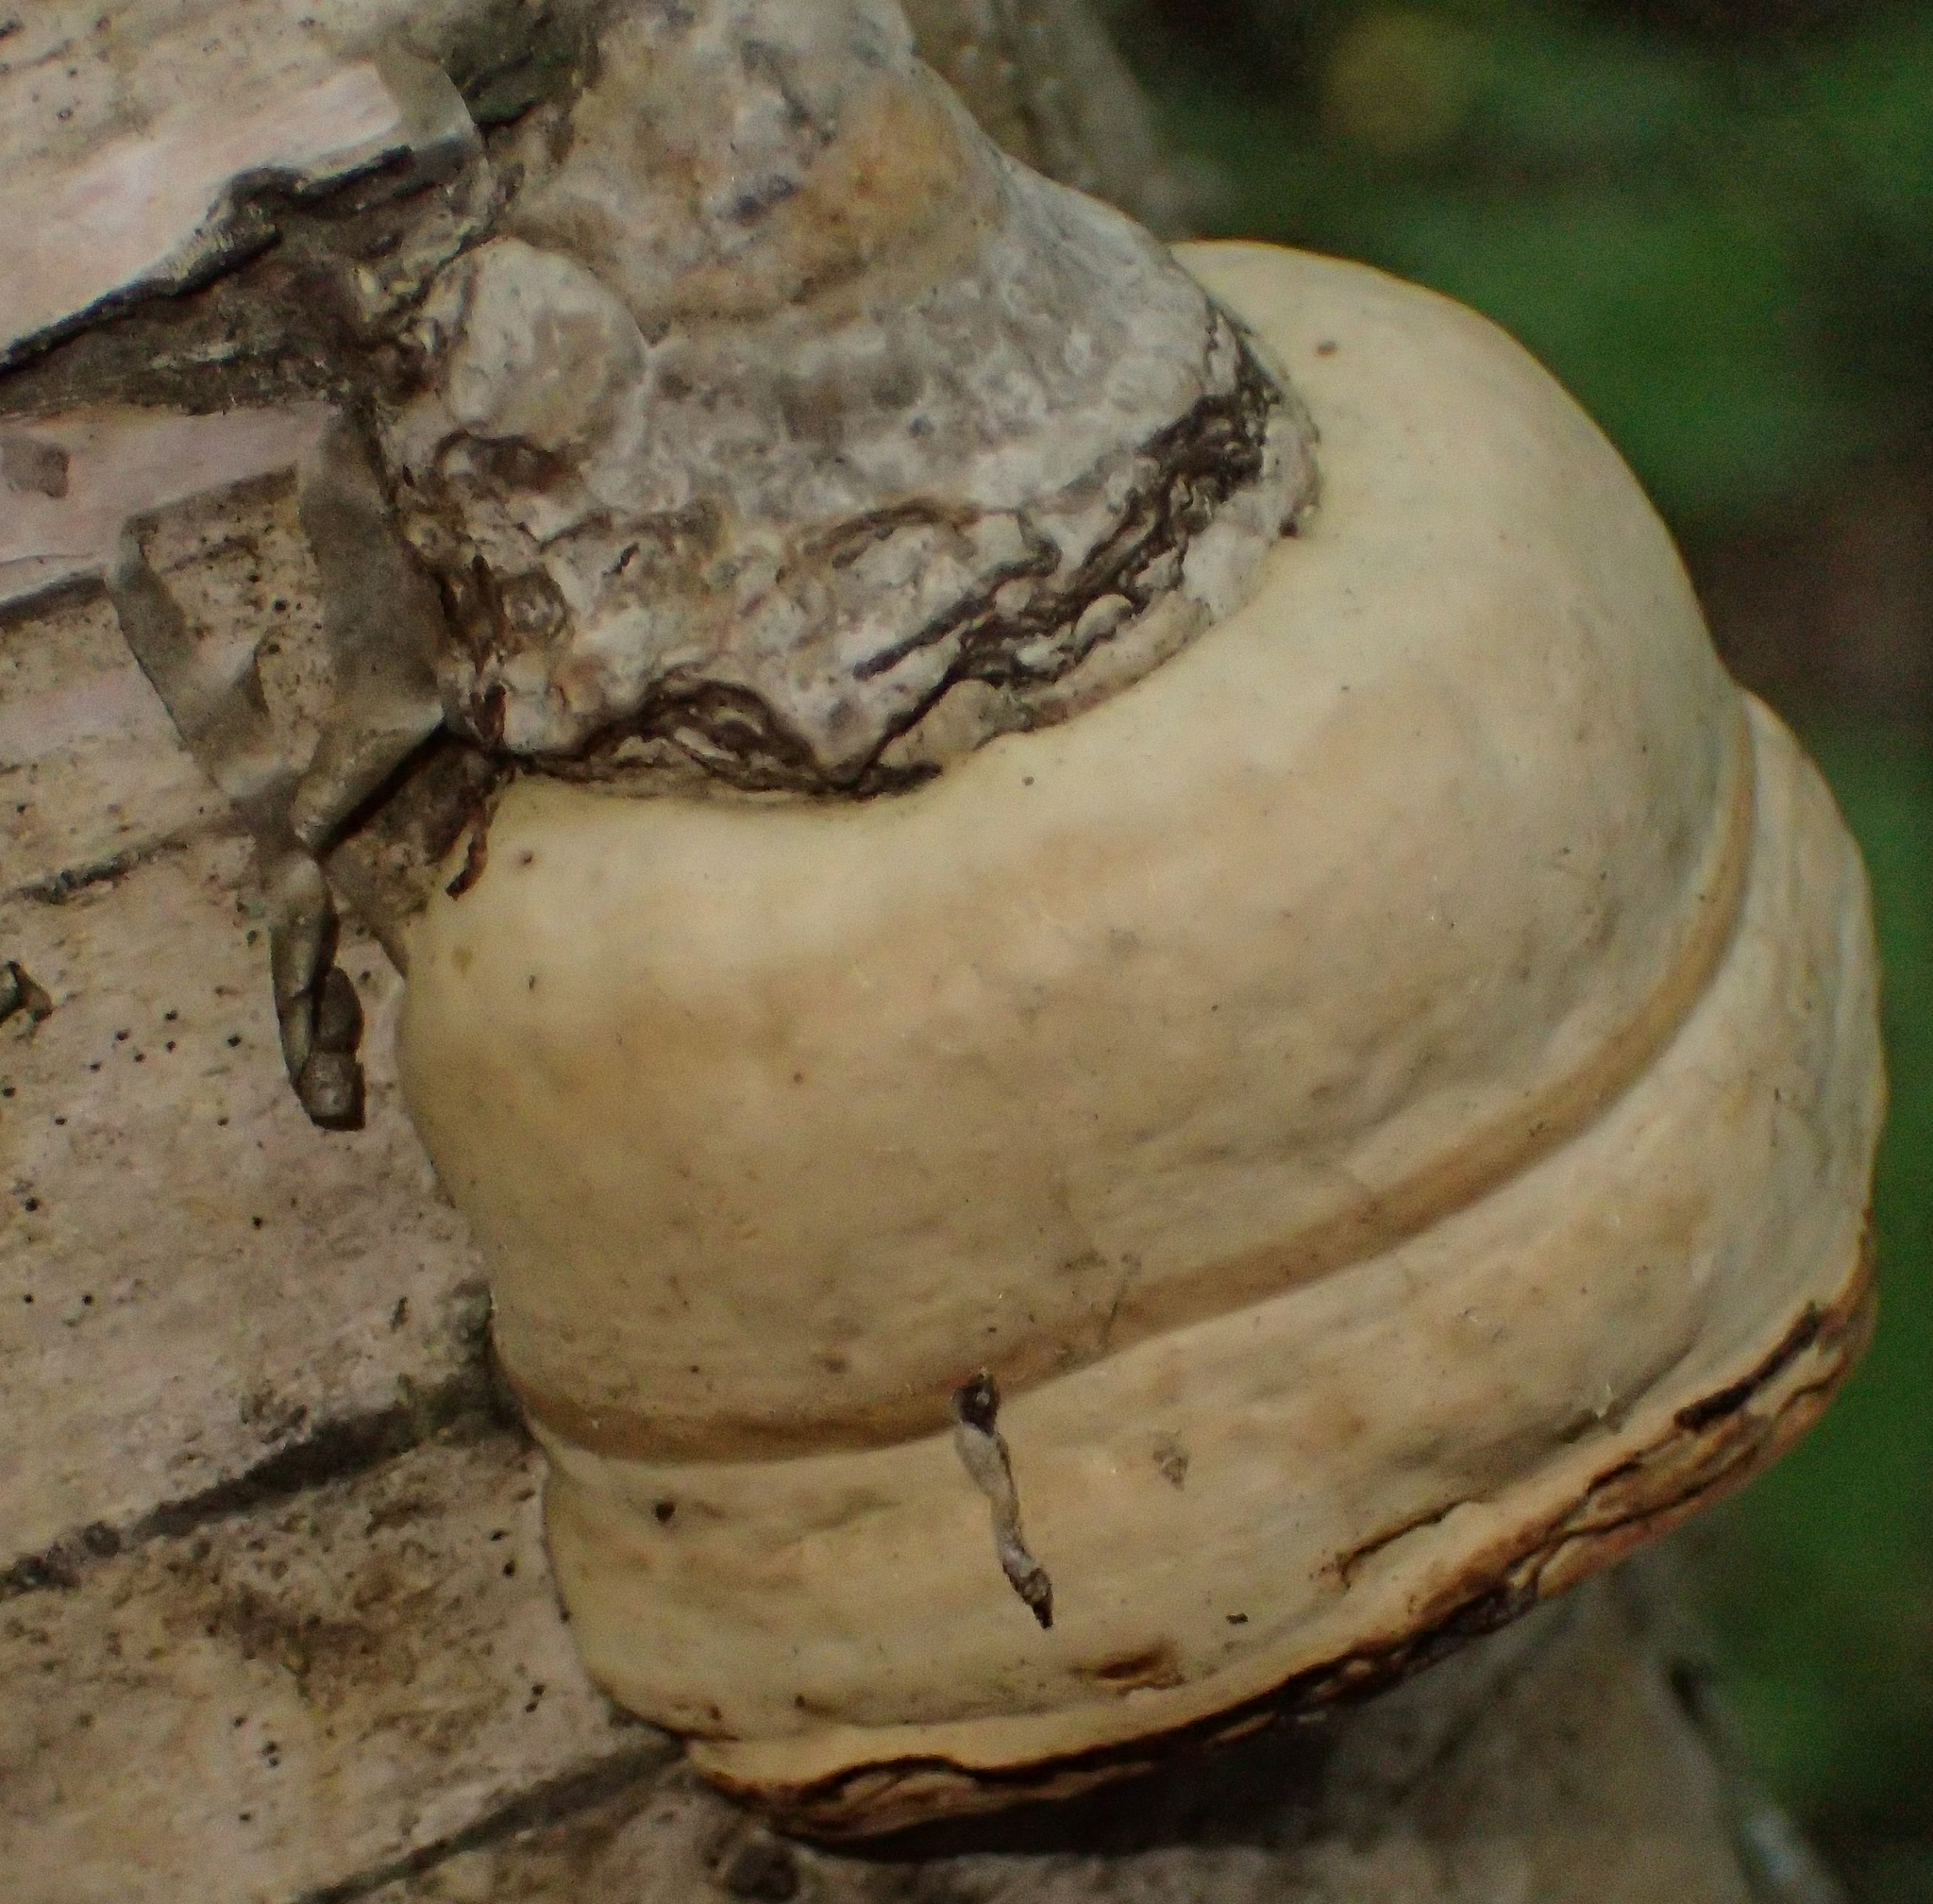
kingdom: Fungi
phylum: Basidiomycota
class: Agaricomycetes
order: Polyporales
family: Polyporaceae
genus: Fomes
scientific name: Fomes fomentarius
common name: Hoof fungus
